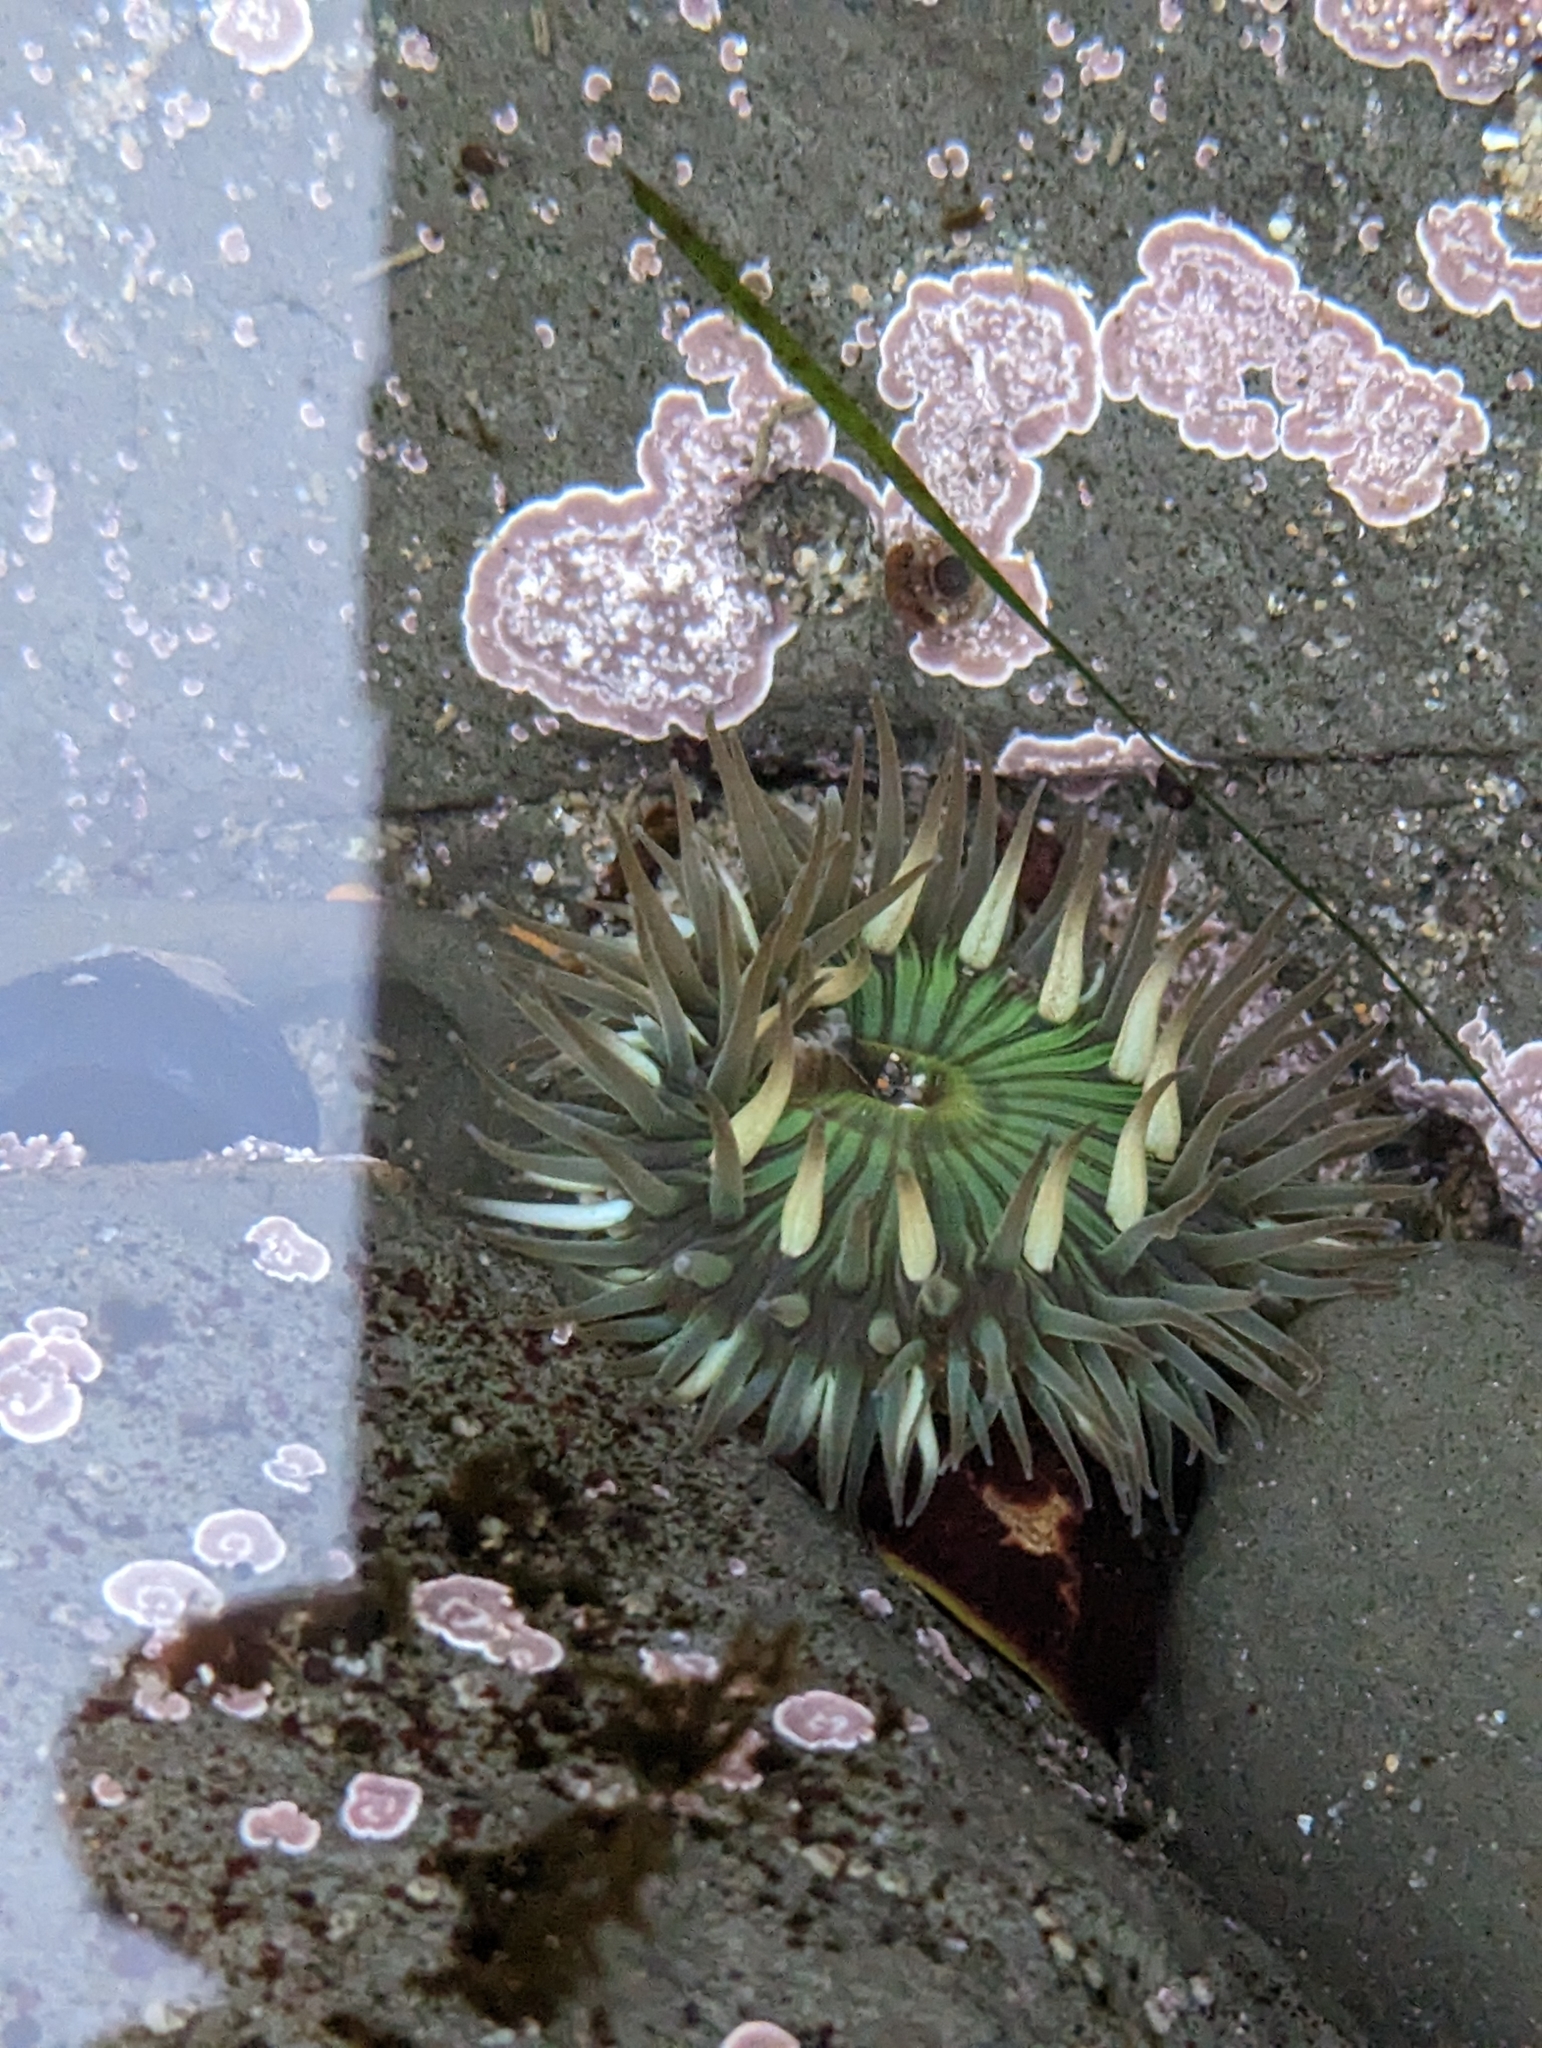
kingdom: Animalia
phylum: Cnidaria
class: Anthozoa
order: Actiniaria
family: Actiniidae
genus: Anthopleura
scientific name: Anthopleura sola
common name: Sun anemone
